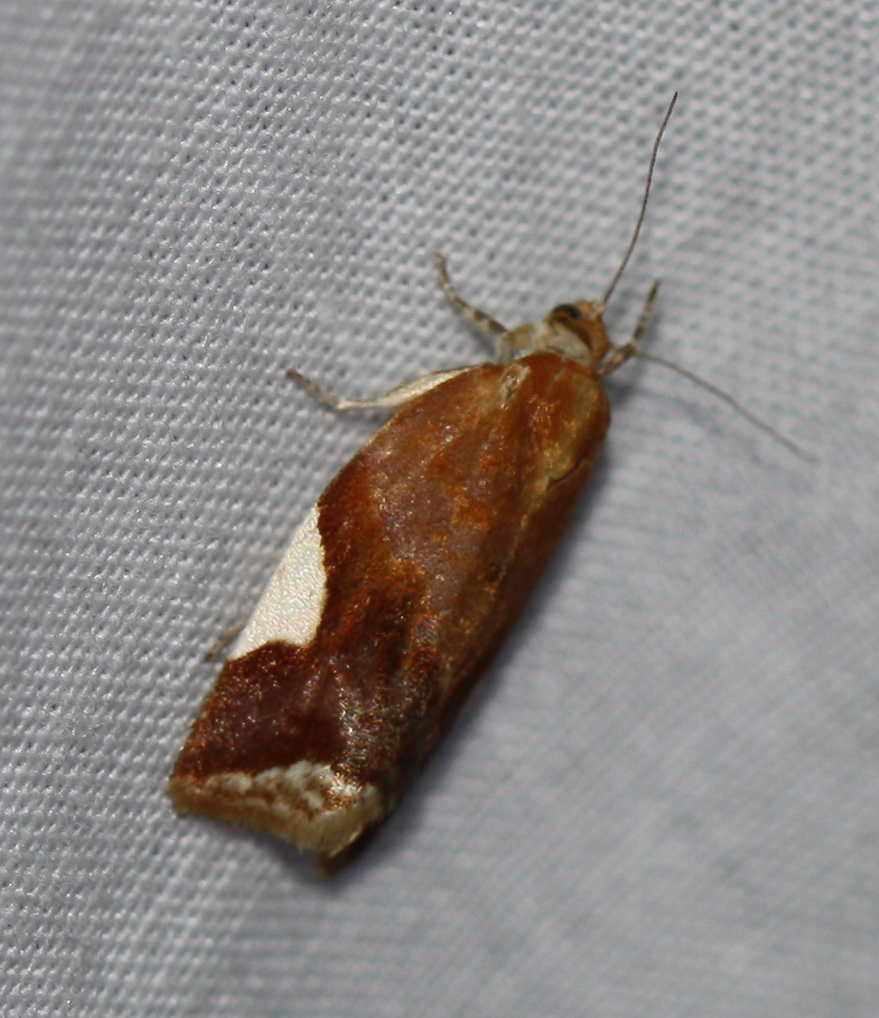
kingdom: Animalia
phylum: Arthropoda
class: Insecta
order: Lepidoptera
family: Tortricidae
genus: Clepsis
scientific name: Clepsis persicana
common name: White triangle tortrix
